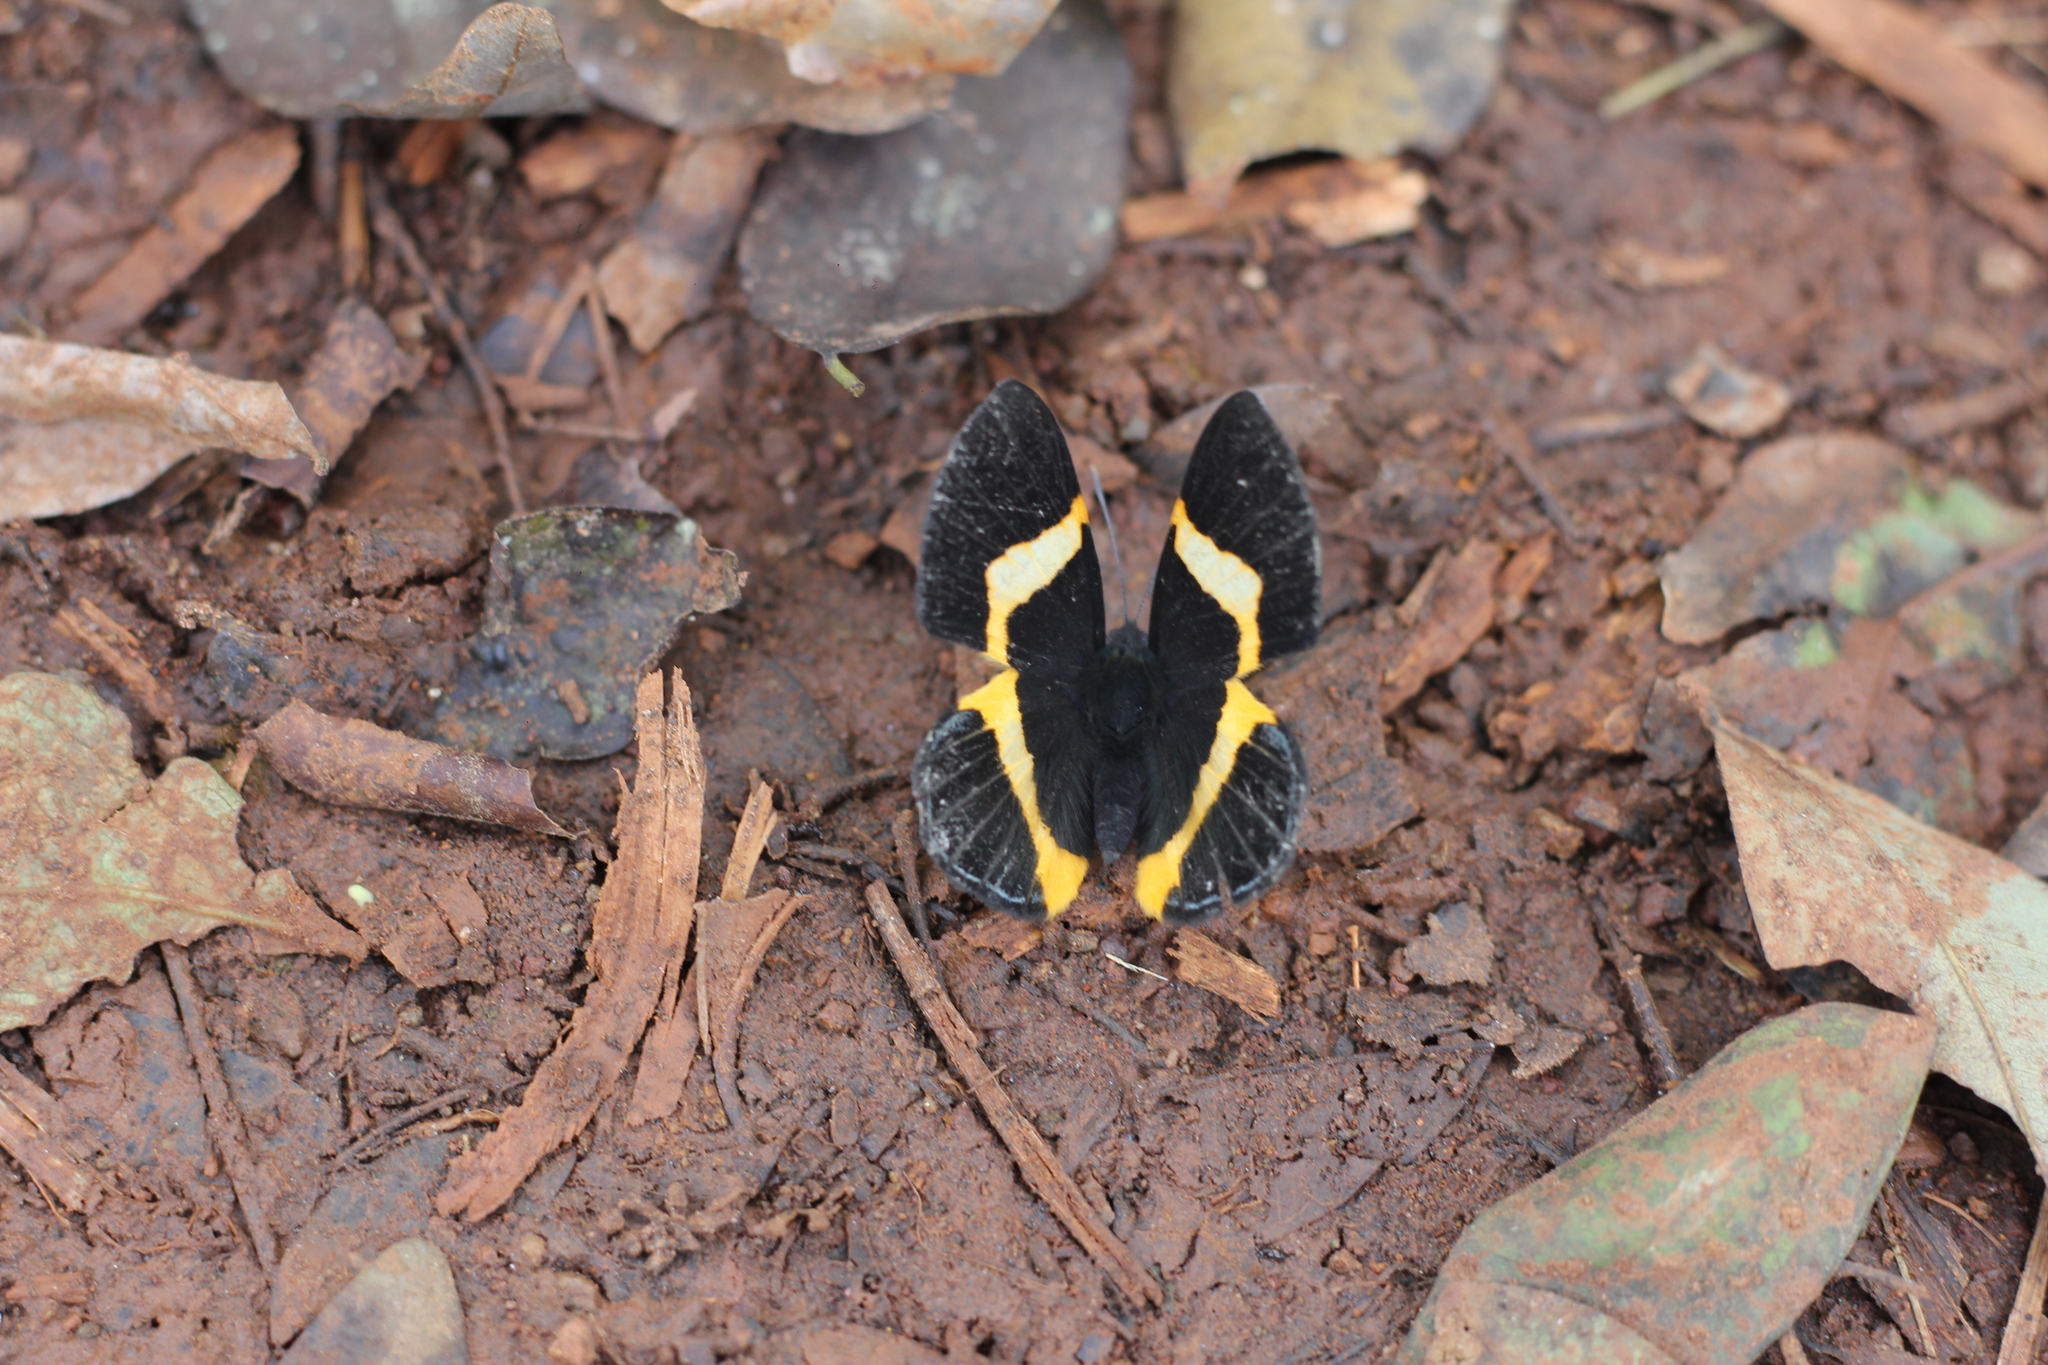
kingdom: Animalia
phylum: Arthropoda
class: Insecta
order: Lepidoptera
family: Riodinidae
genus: Notheme
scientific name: Notheme eumeus
